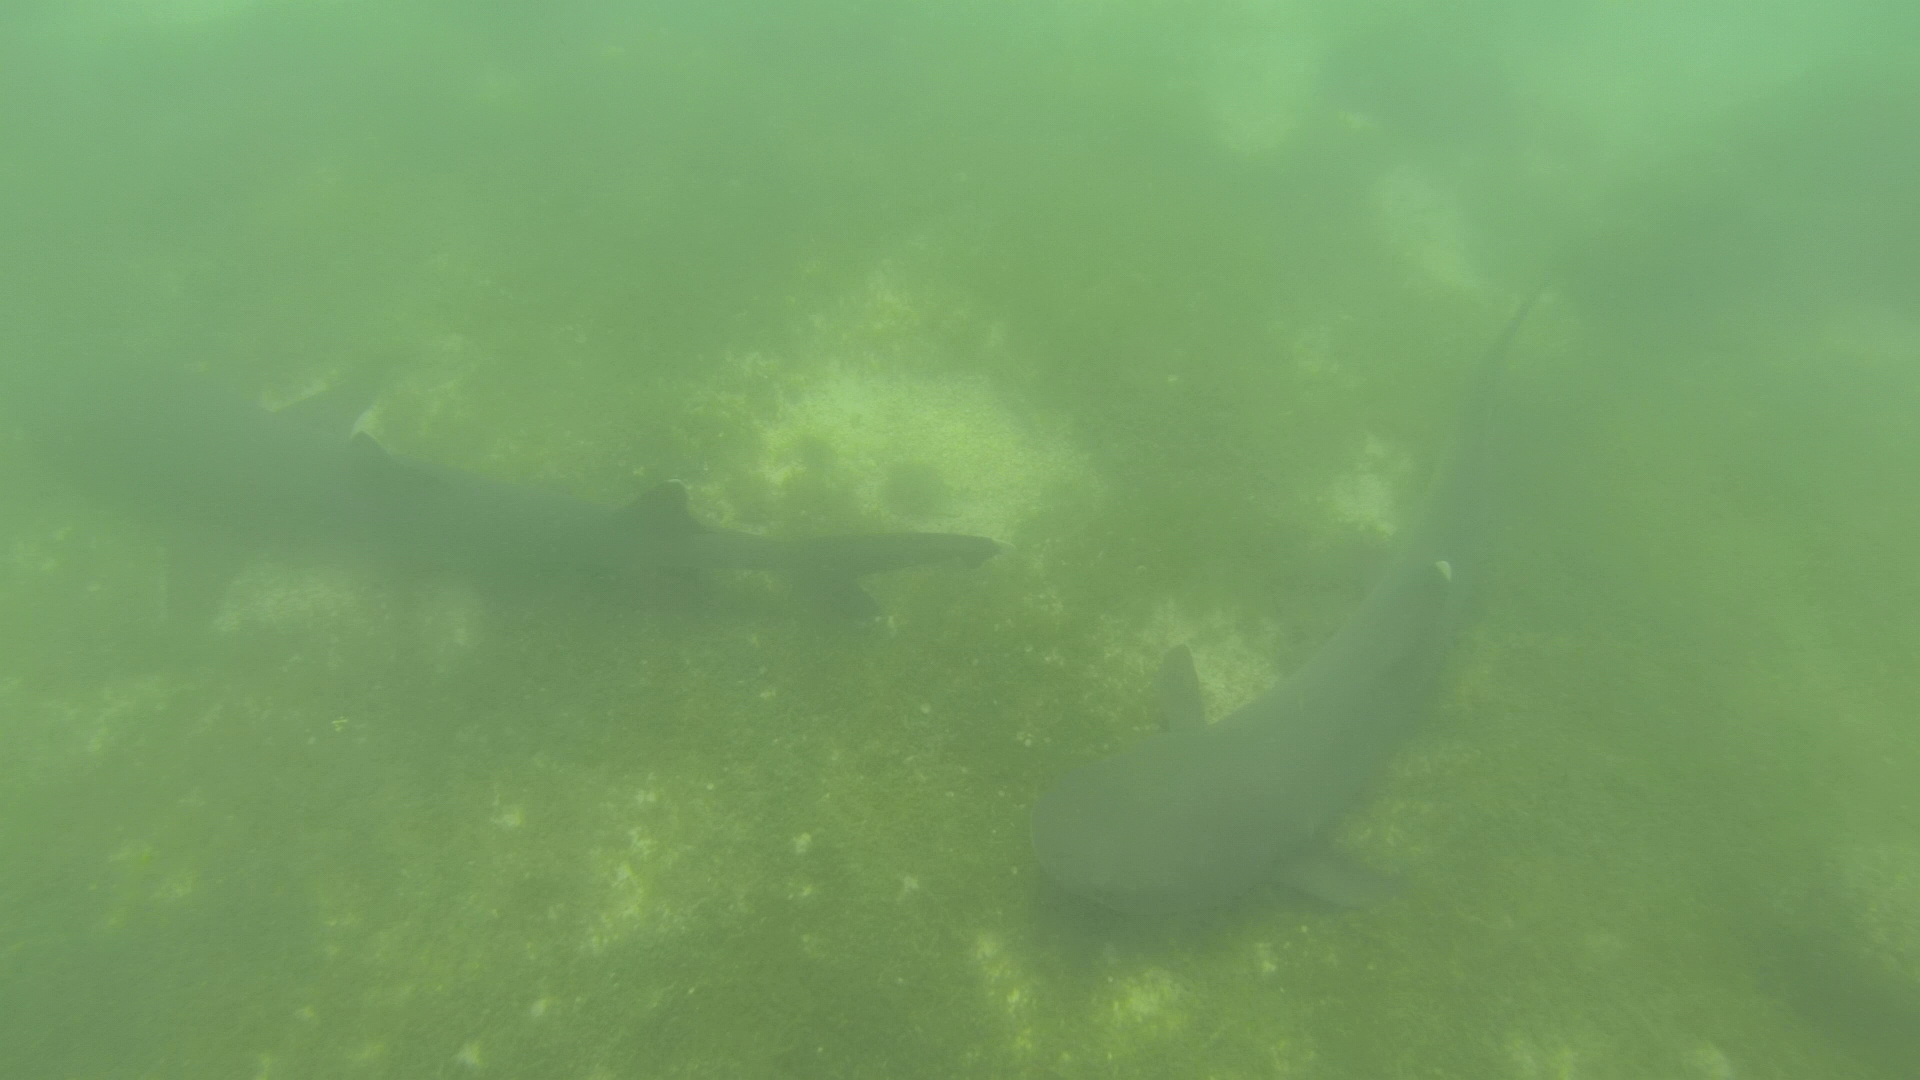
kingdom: Animalia
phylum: Chordata
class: Elasmobranchii
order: Carcharhiniformes
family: Carcharhinidae
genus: Triaenodon
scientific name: Triaenodon obesus
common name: Whitetip reef shark
